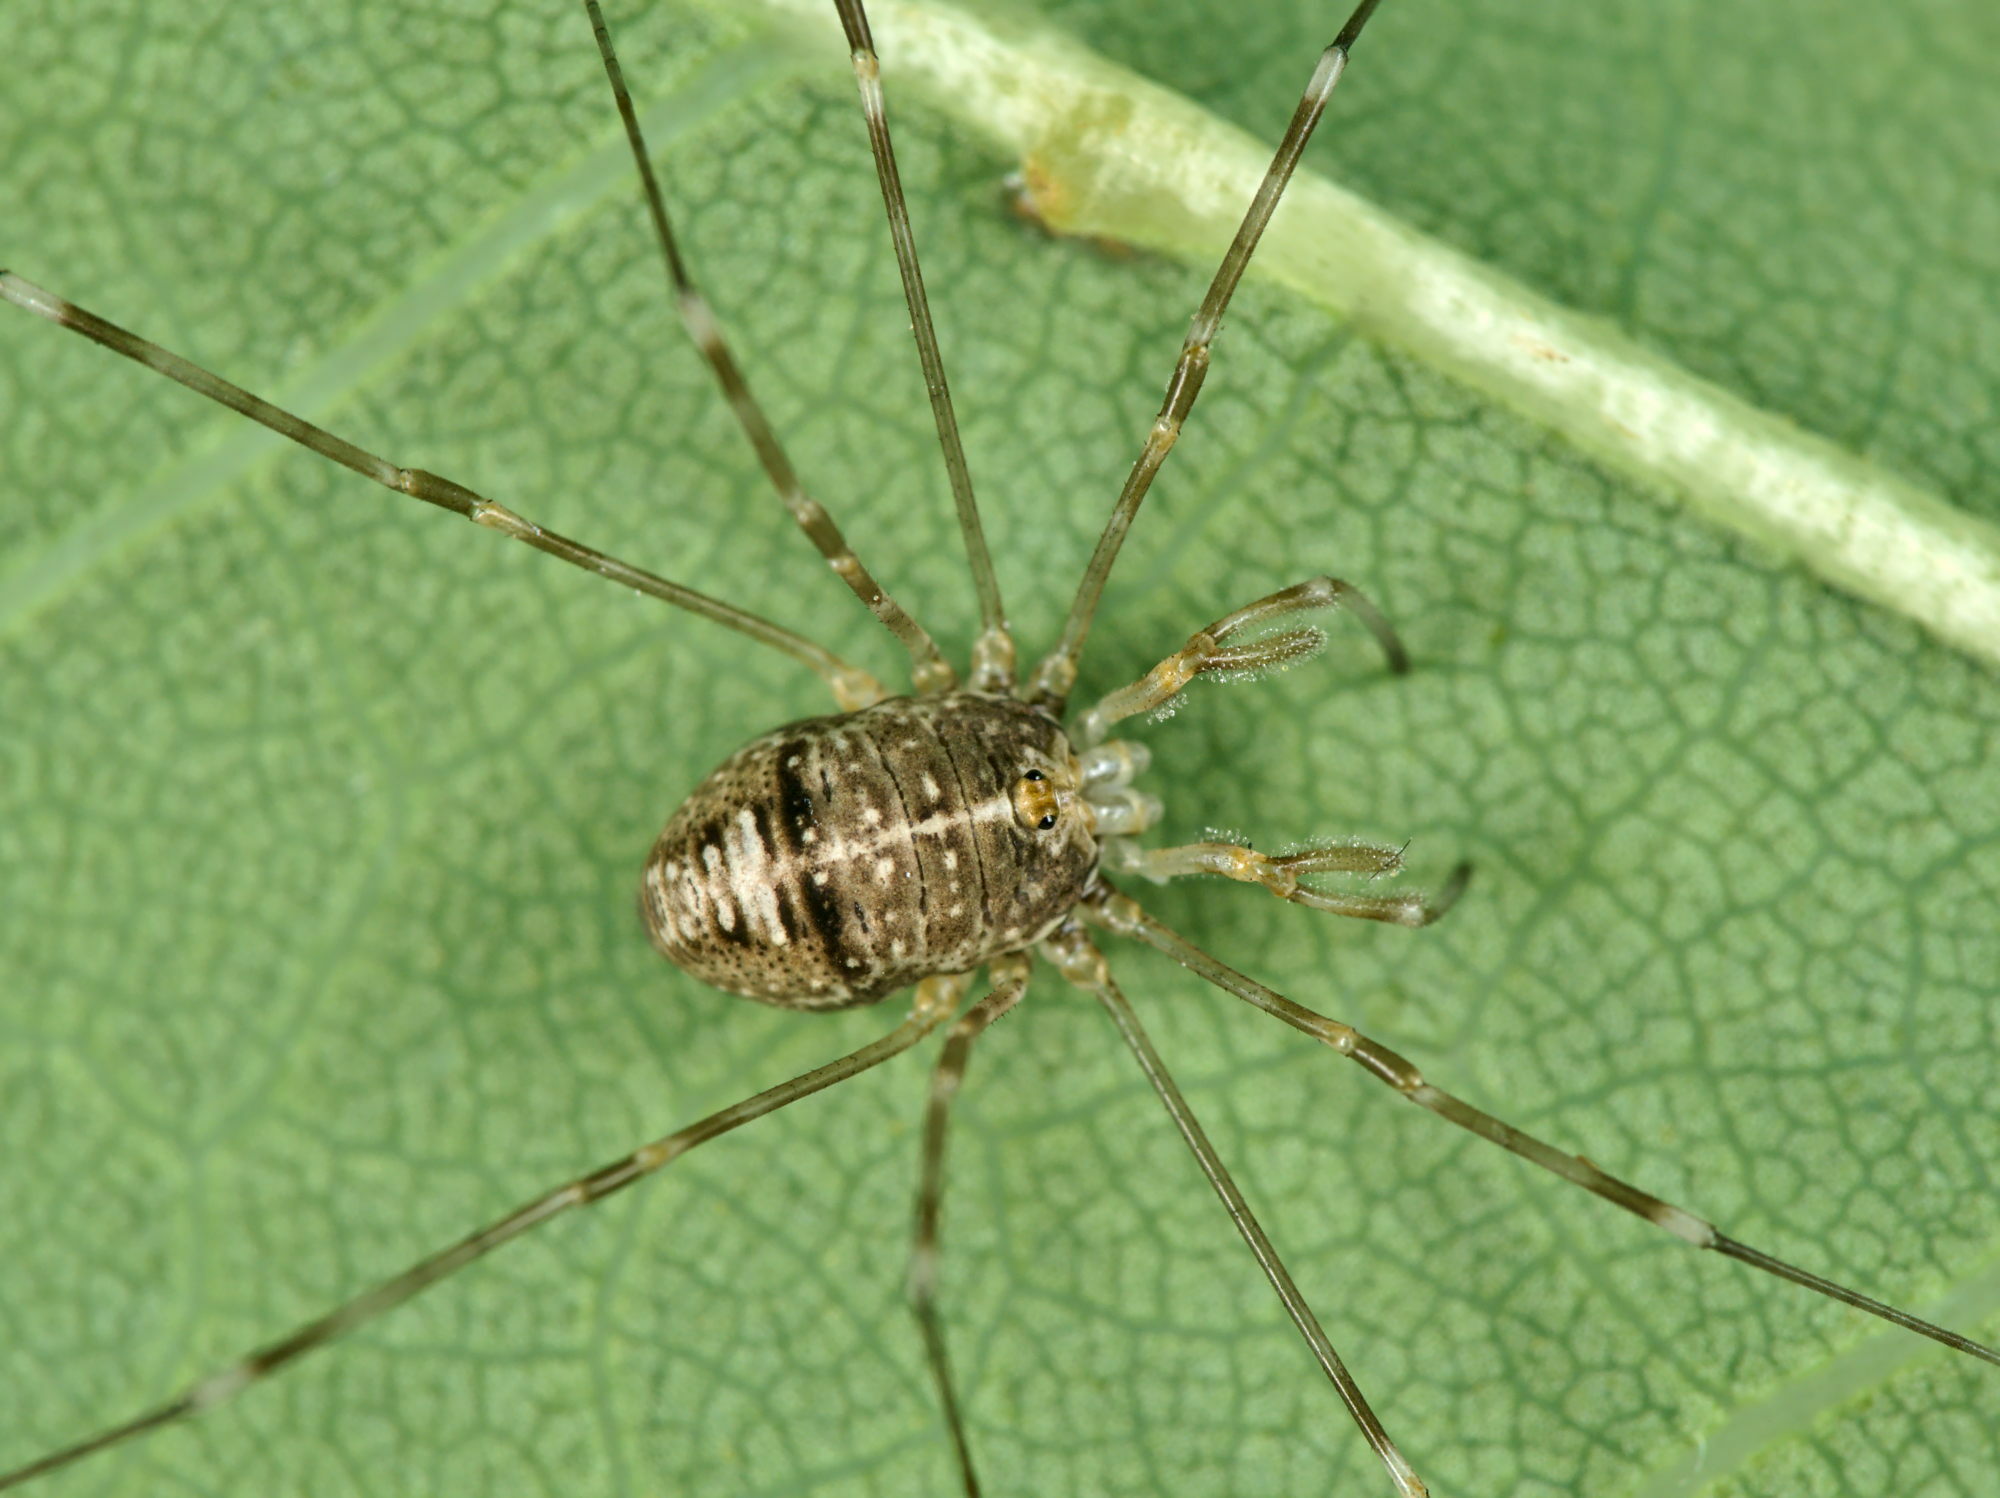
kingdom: Animalia
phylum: Arthropoda
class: Arachnida
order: Opiliones
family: Phalangiidae
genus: Dicranopalpus
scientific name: Dicranopalpus ramosus
